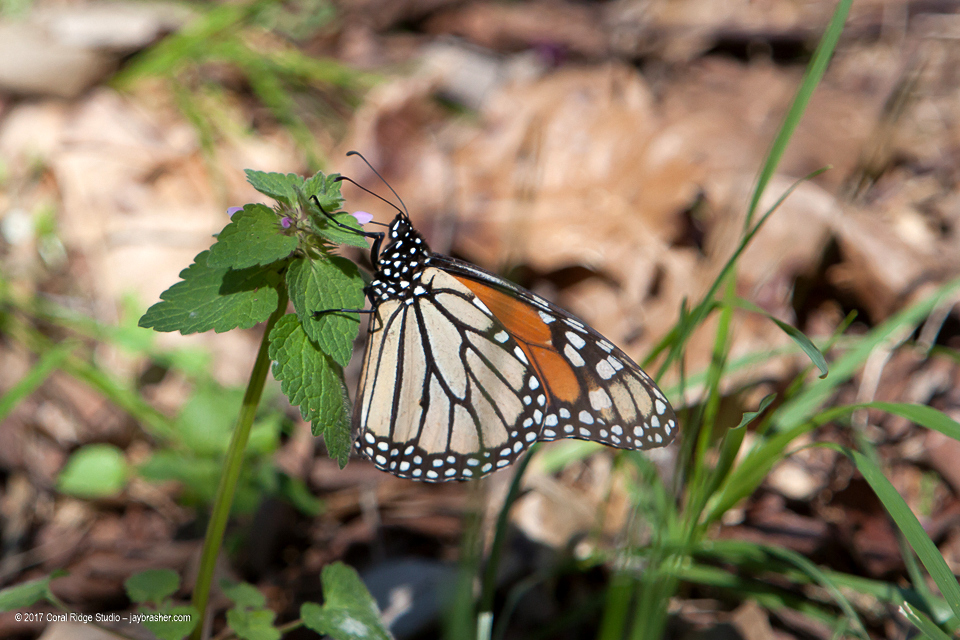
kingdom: Animalia
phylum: Arthropoda
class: Insecta
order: Lepidoptera
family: Nymphalidae
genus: Danaus
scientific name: Danaus plexippus
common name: Monarch
